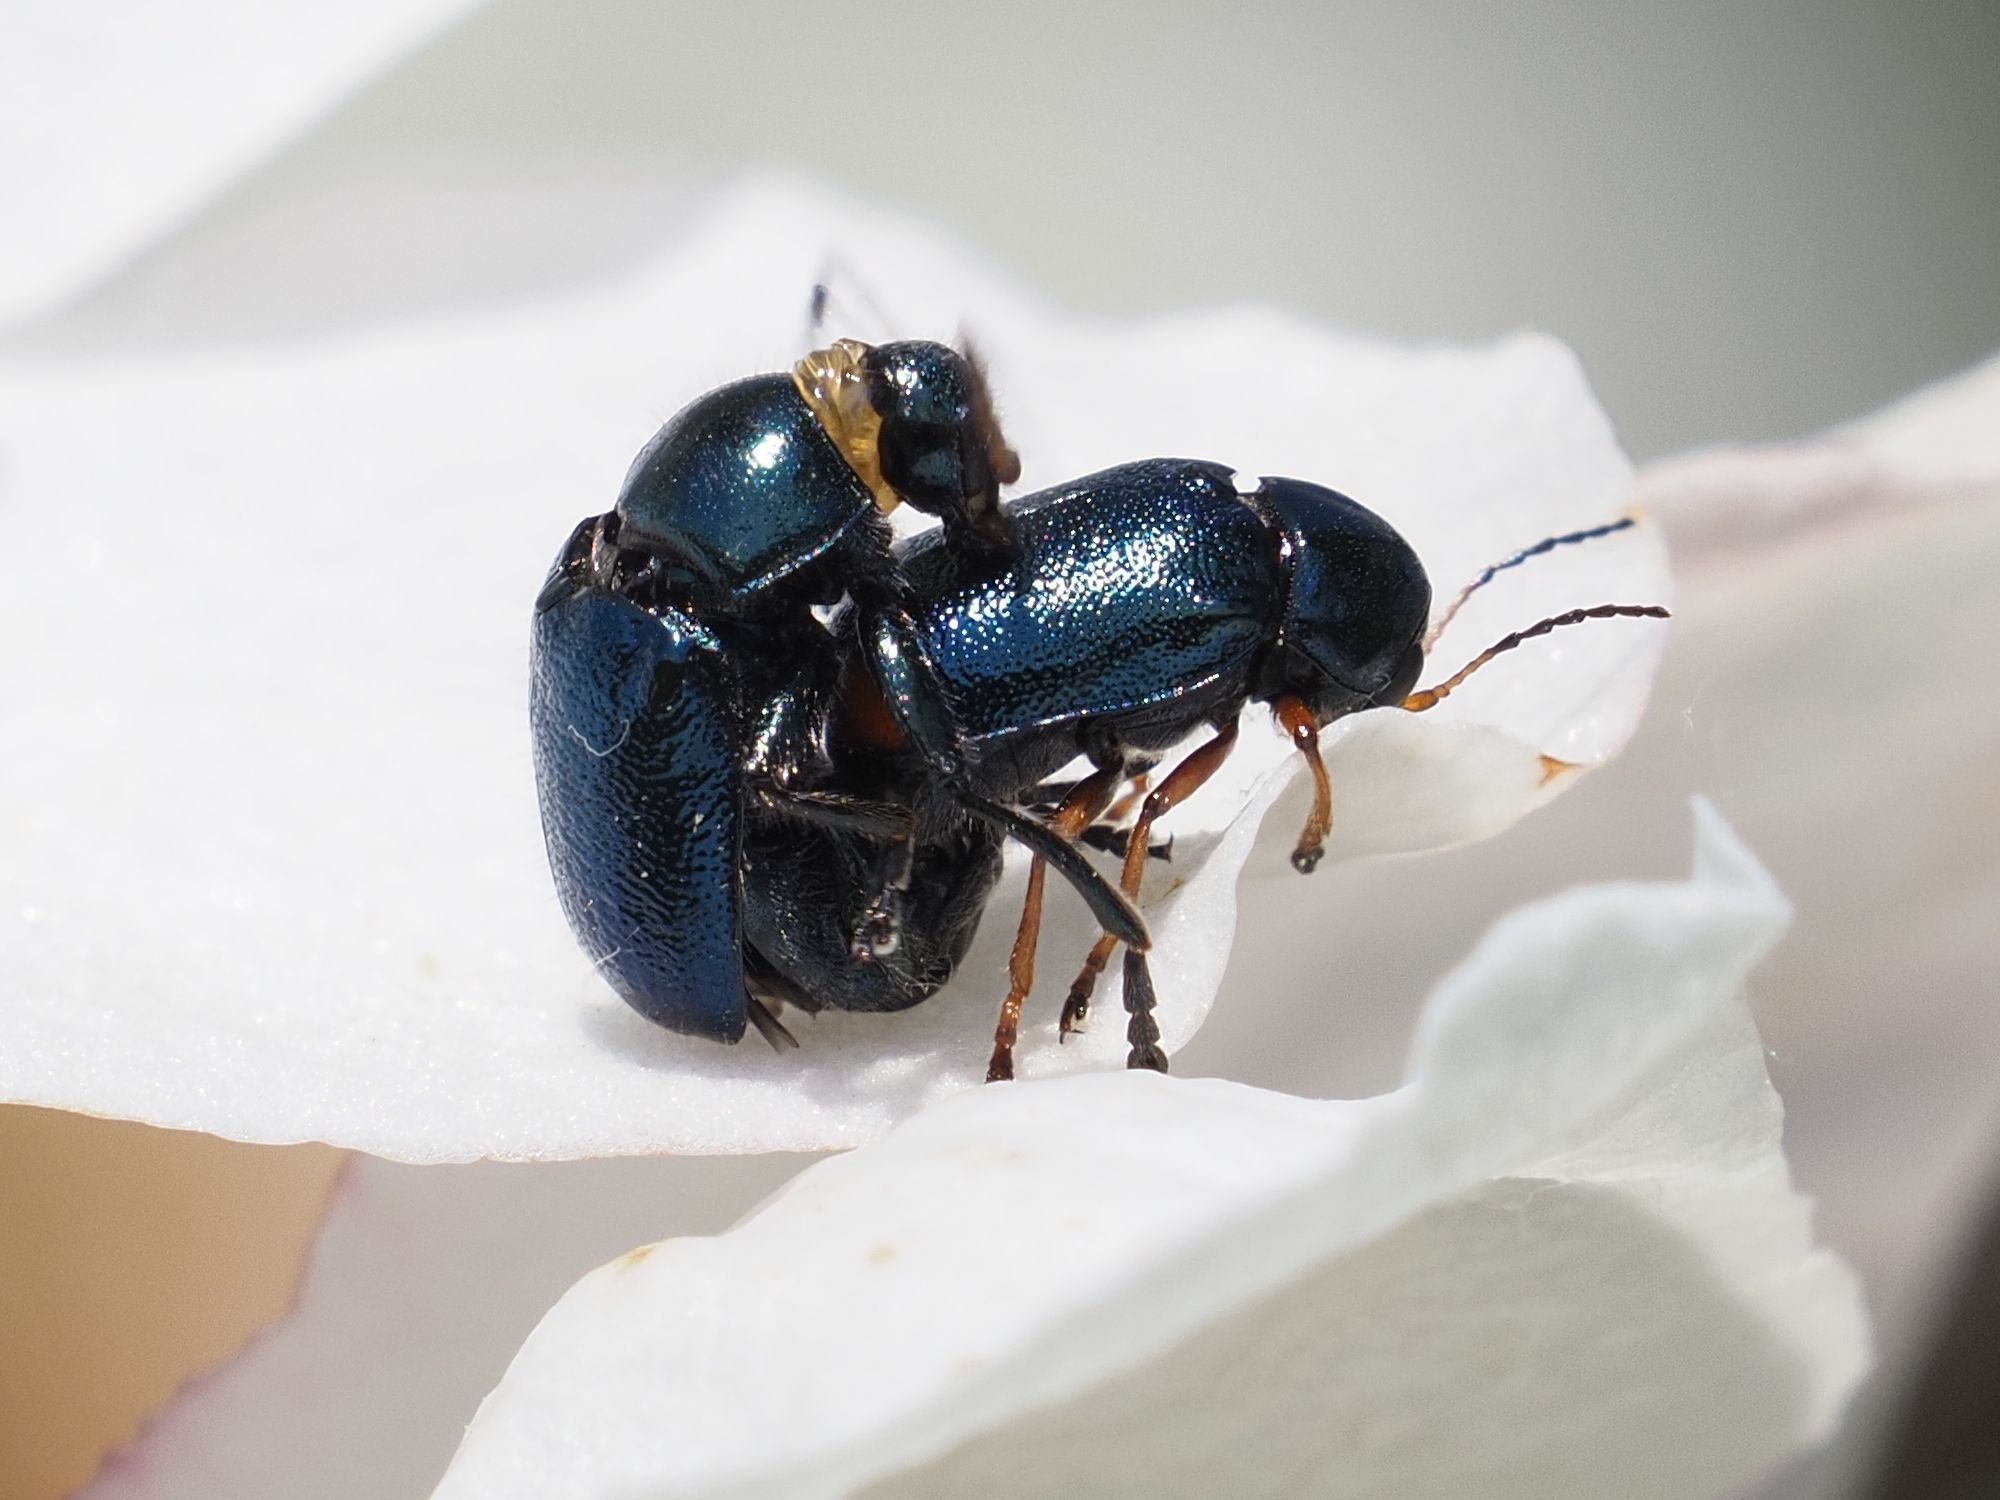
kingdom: Animalia
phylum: Arthropoda
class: Insecta
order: Coleoptera
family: Chrysomelidae
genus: Cryptocephalus
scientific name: Cryptocephalus schaefferi
